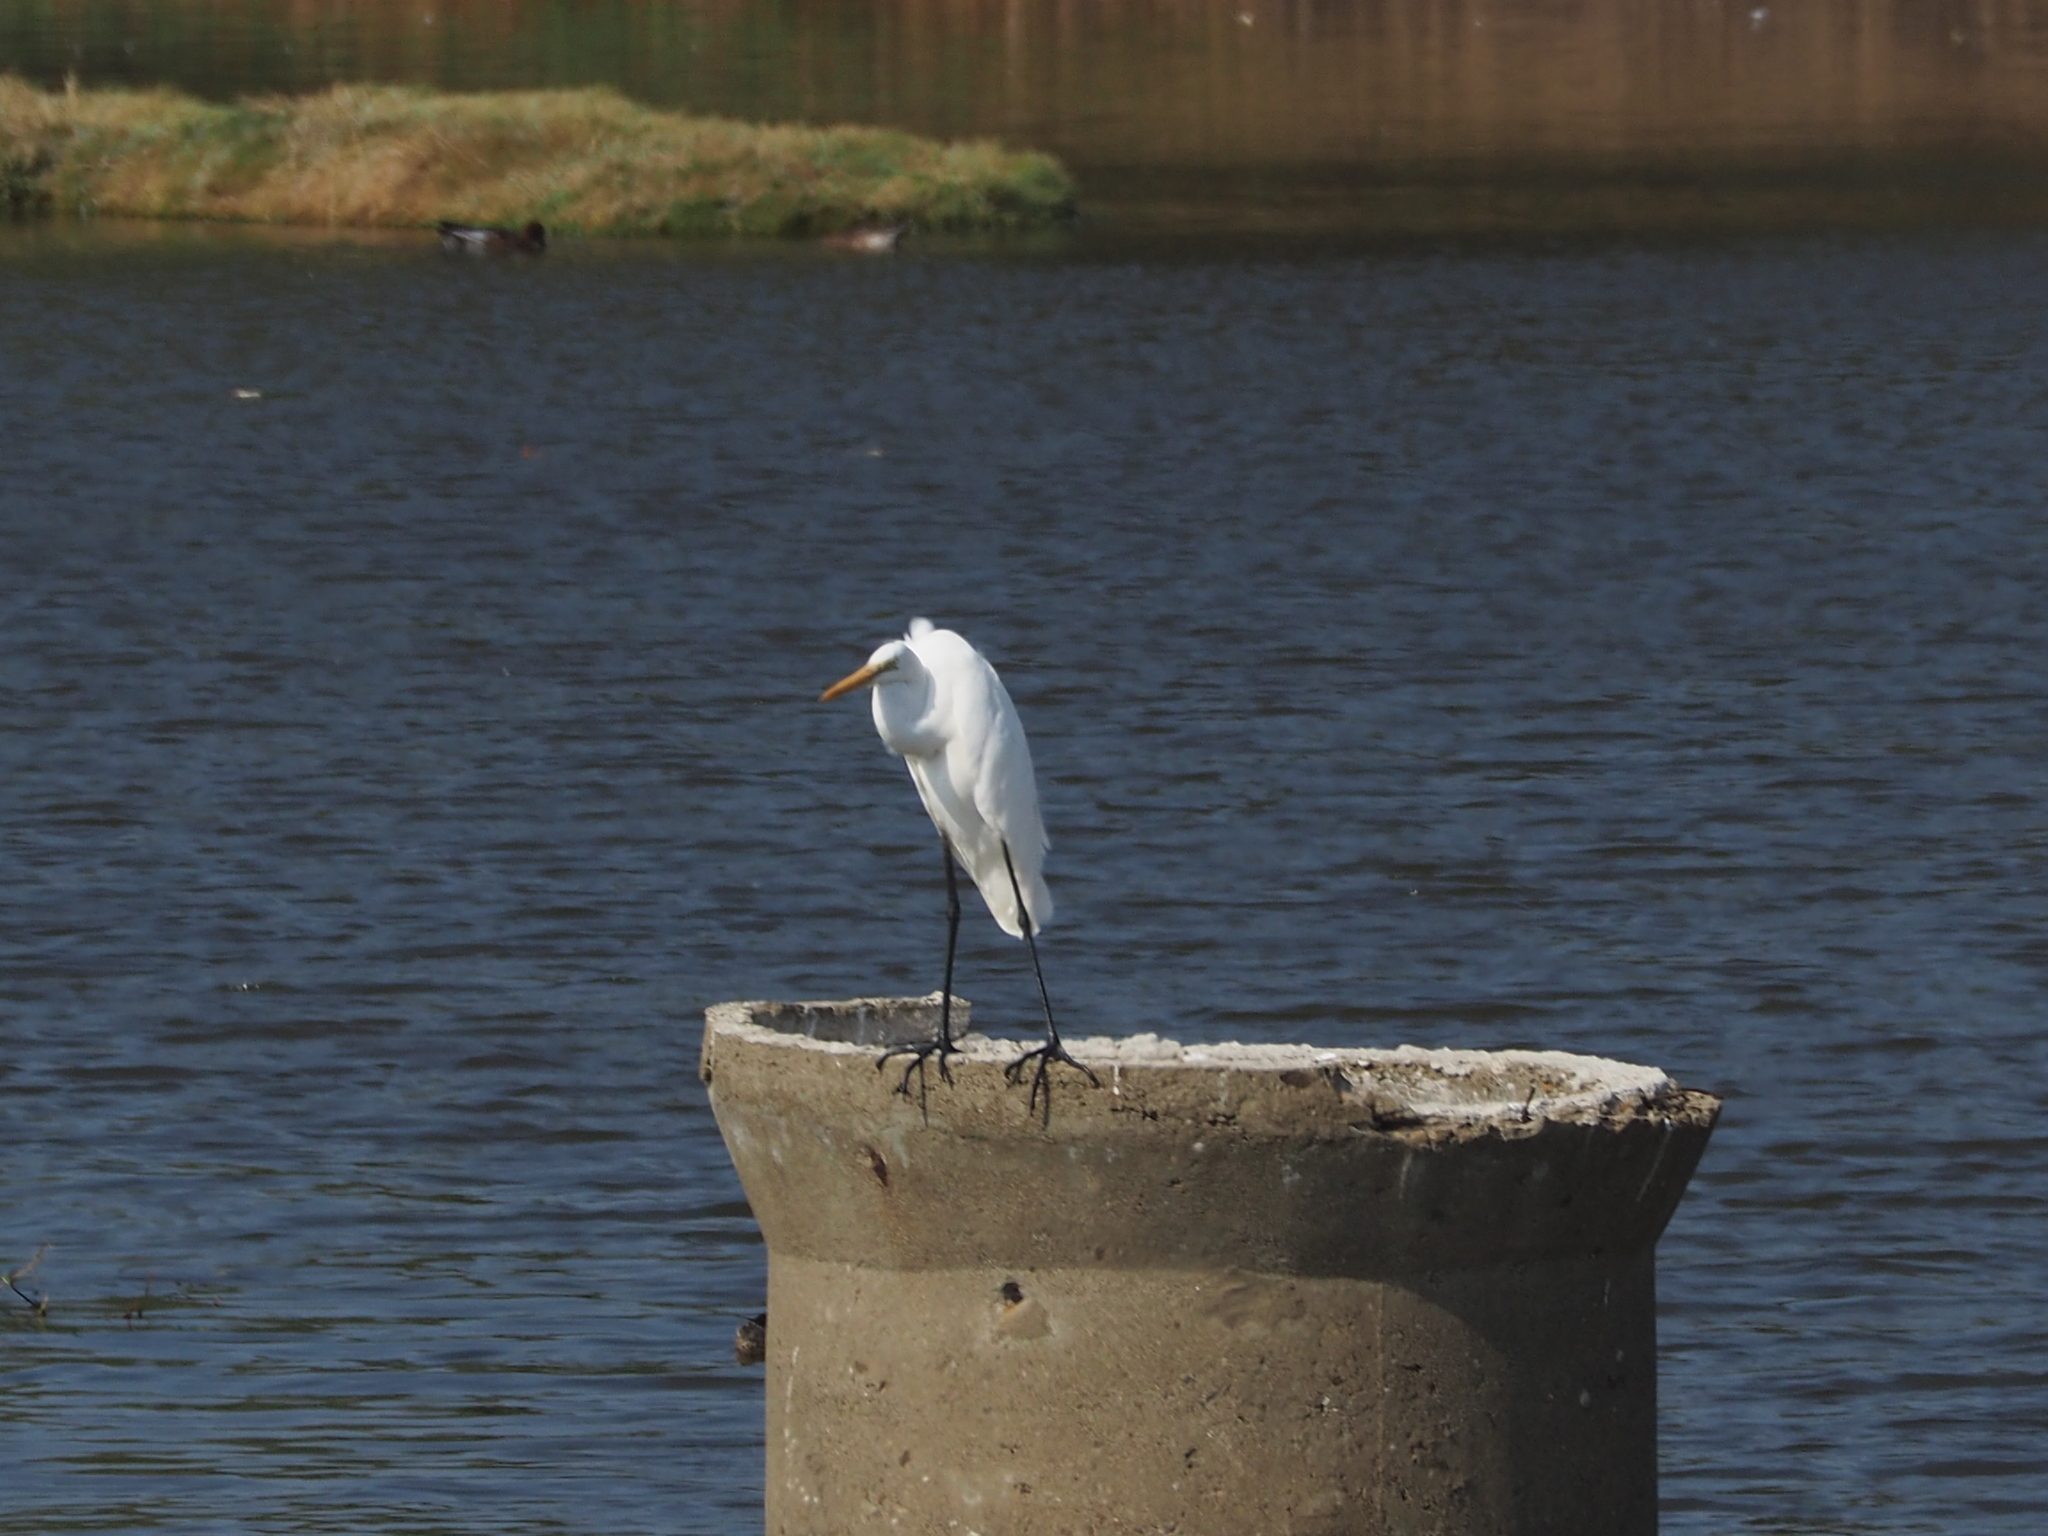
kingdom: Animalia
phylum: Chordata
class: Aves
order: Pelecaniformes
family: Ardeidae
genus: Ardea
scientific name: Ardea alba
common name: Great egret
